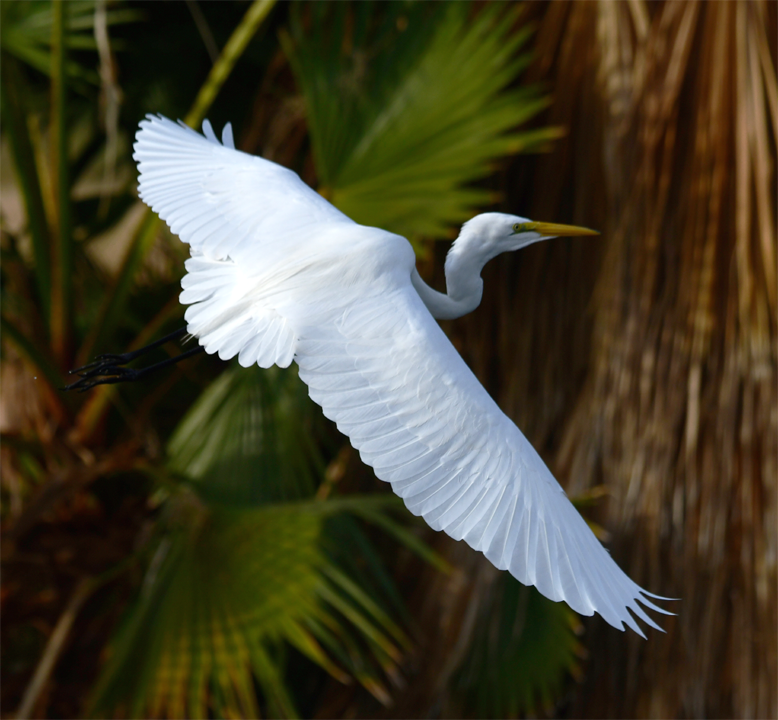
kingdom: Animalia
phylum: Chordata
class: Aves
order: Pelecaniformes
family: Ardeidae
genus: Ardea
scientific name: Ardea alba
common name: Great egret
